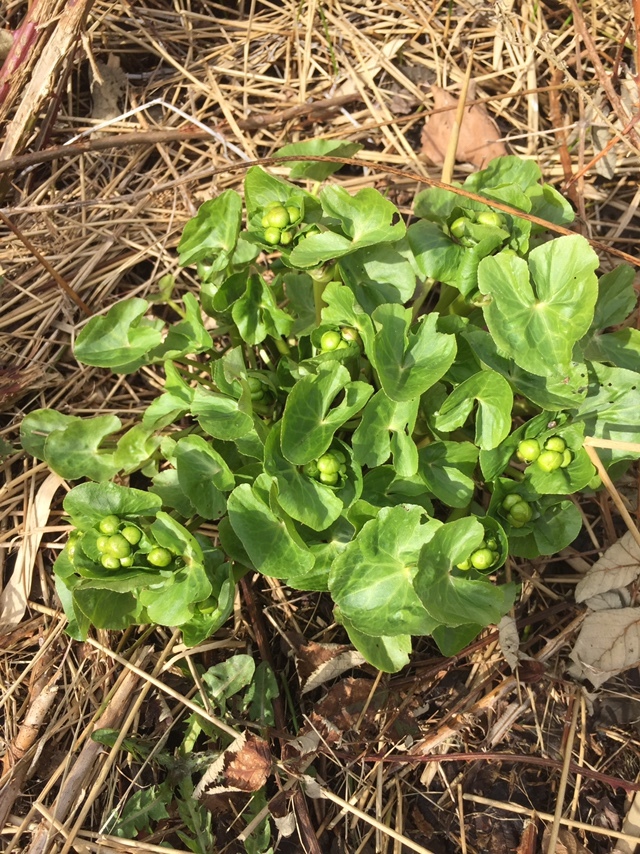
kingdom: Plantae
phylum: Tracheophyta
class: Magnoliopsida
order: Ranunculales
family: Ranunculaceae
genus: Caltha
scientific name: Caltha palustris
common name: Marsh marigold
